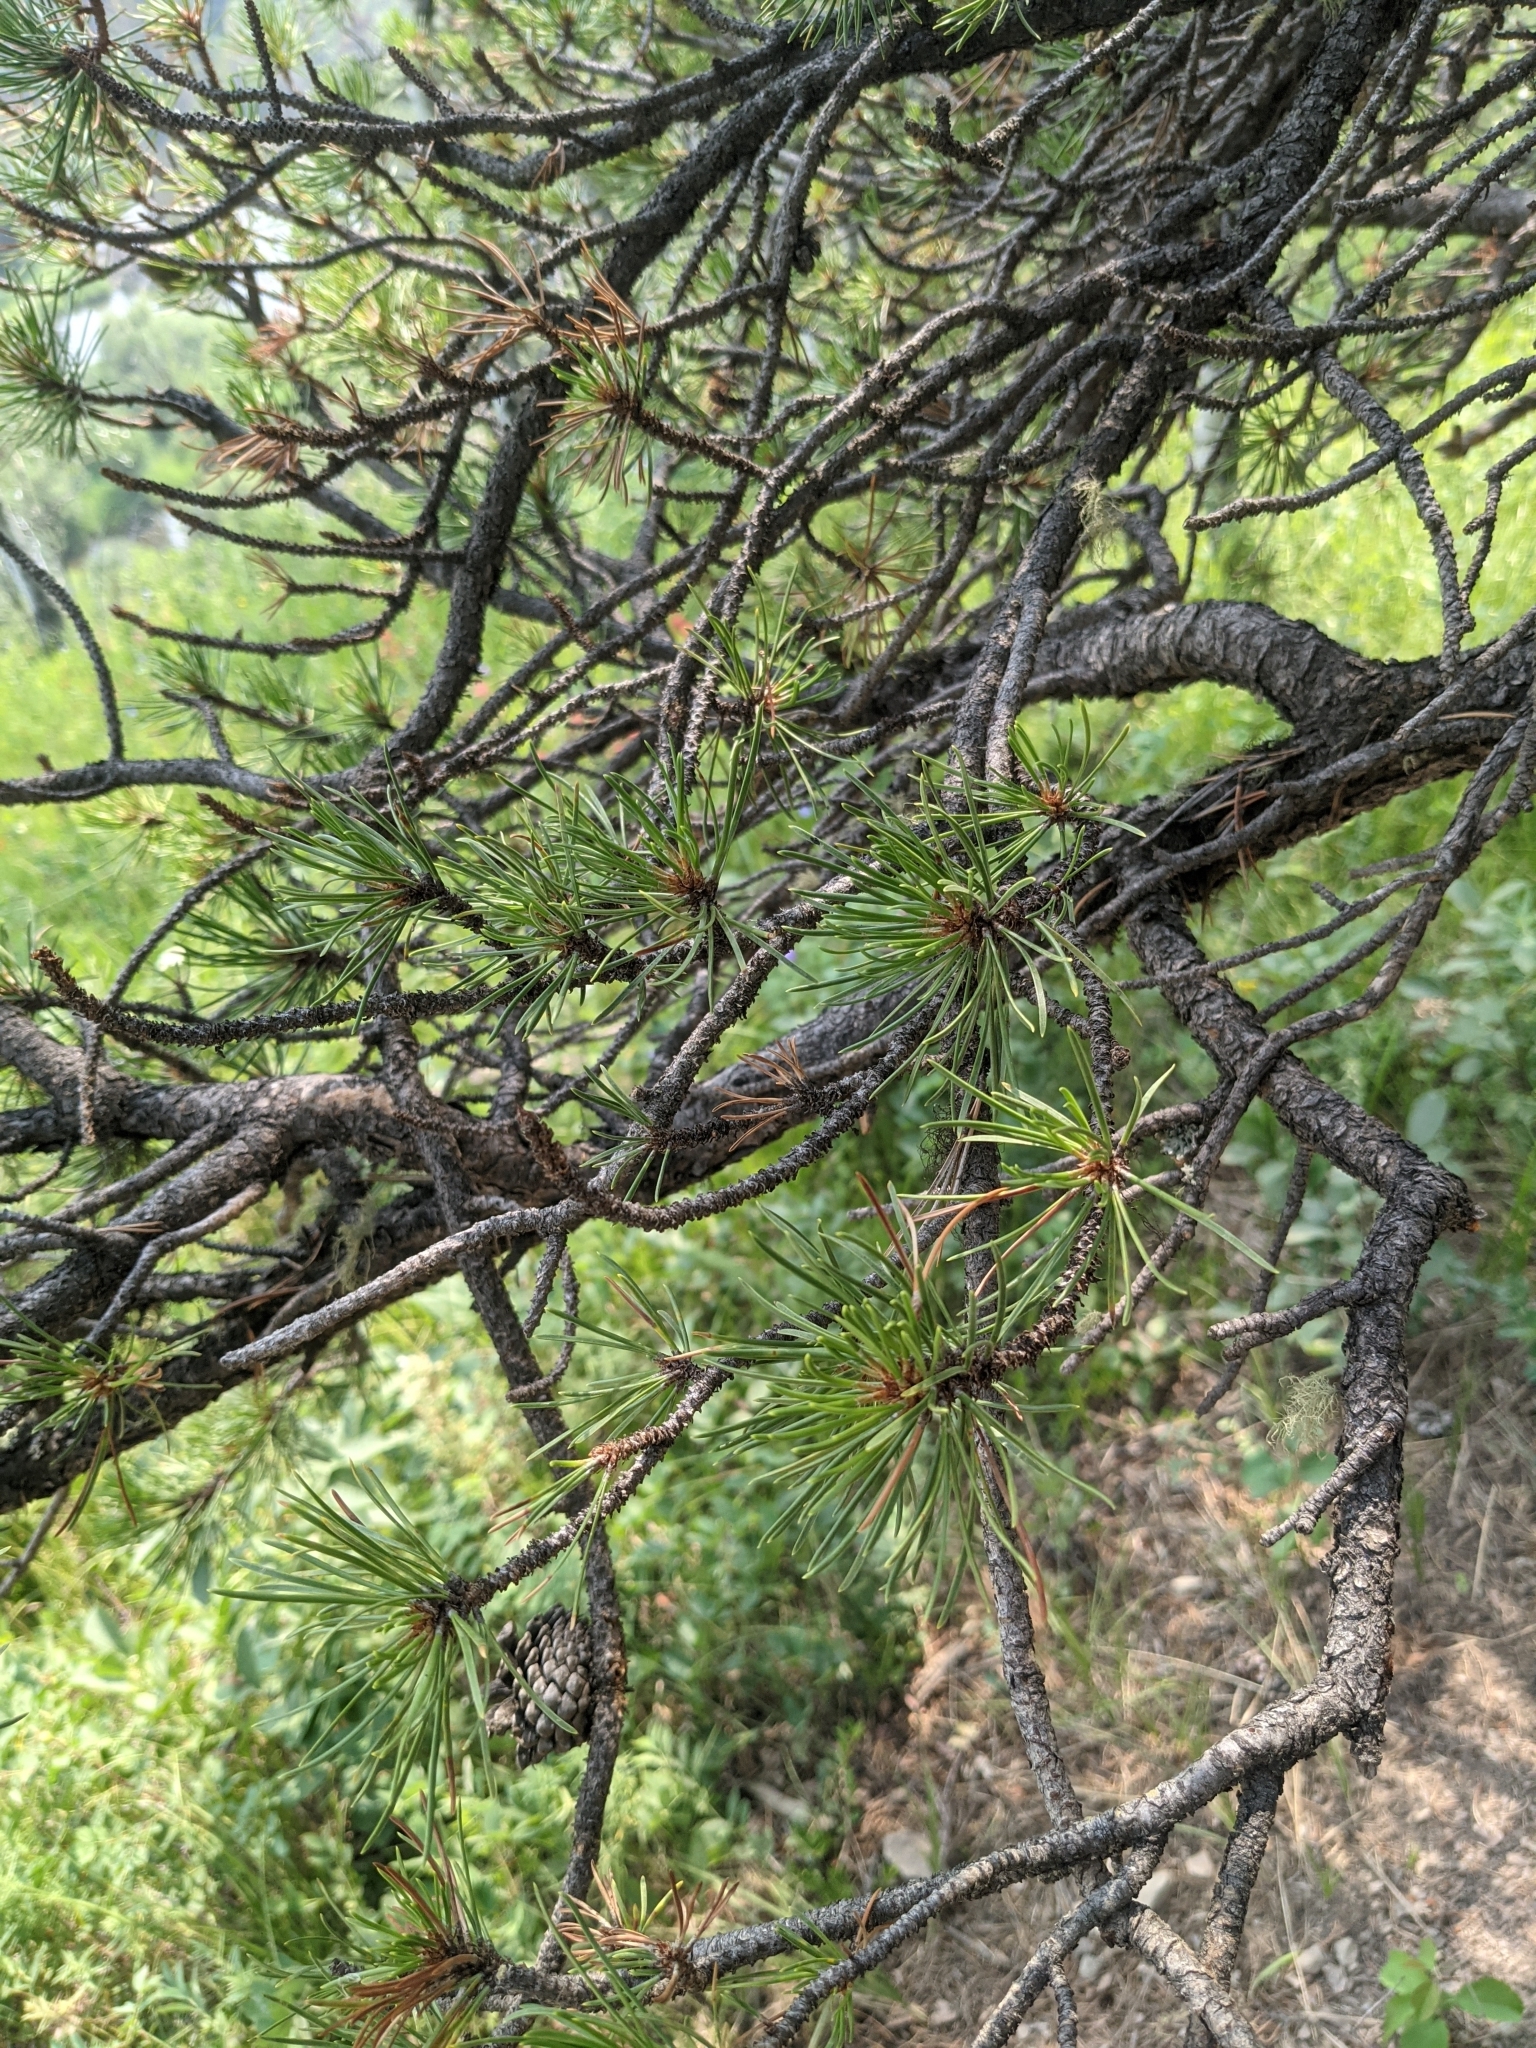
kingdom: Plantae
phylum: Tracheophyta
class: Pinopsida
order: Pinales
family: Pinaceae
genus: Pinus
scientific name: Pinus contorta
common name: Lodgepole pine
